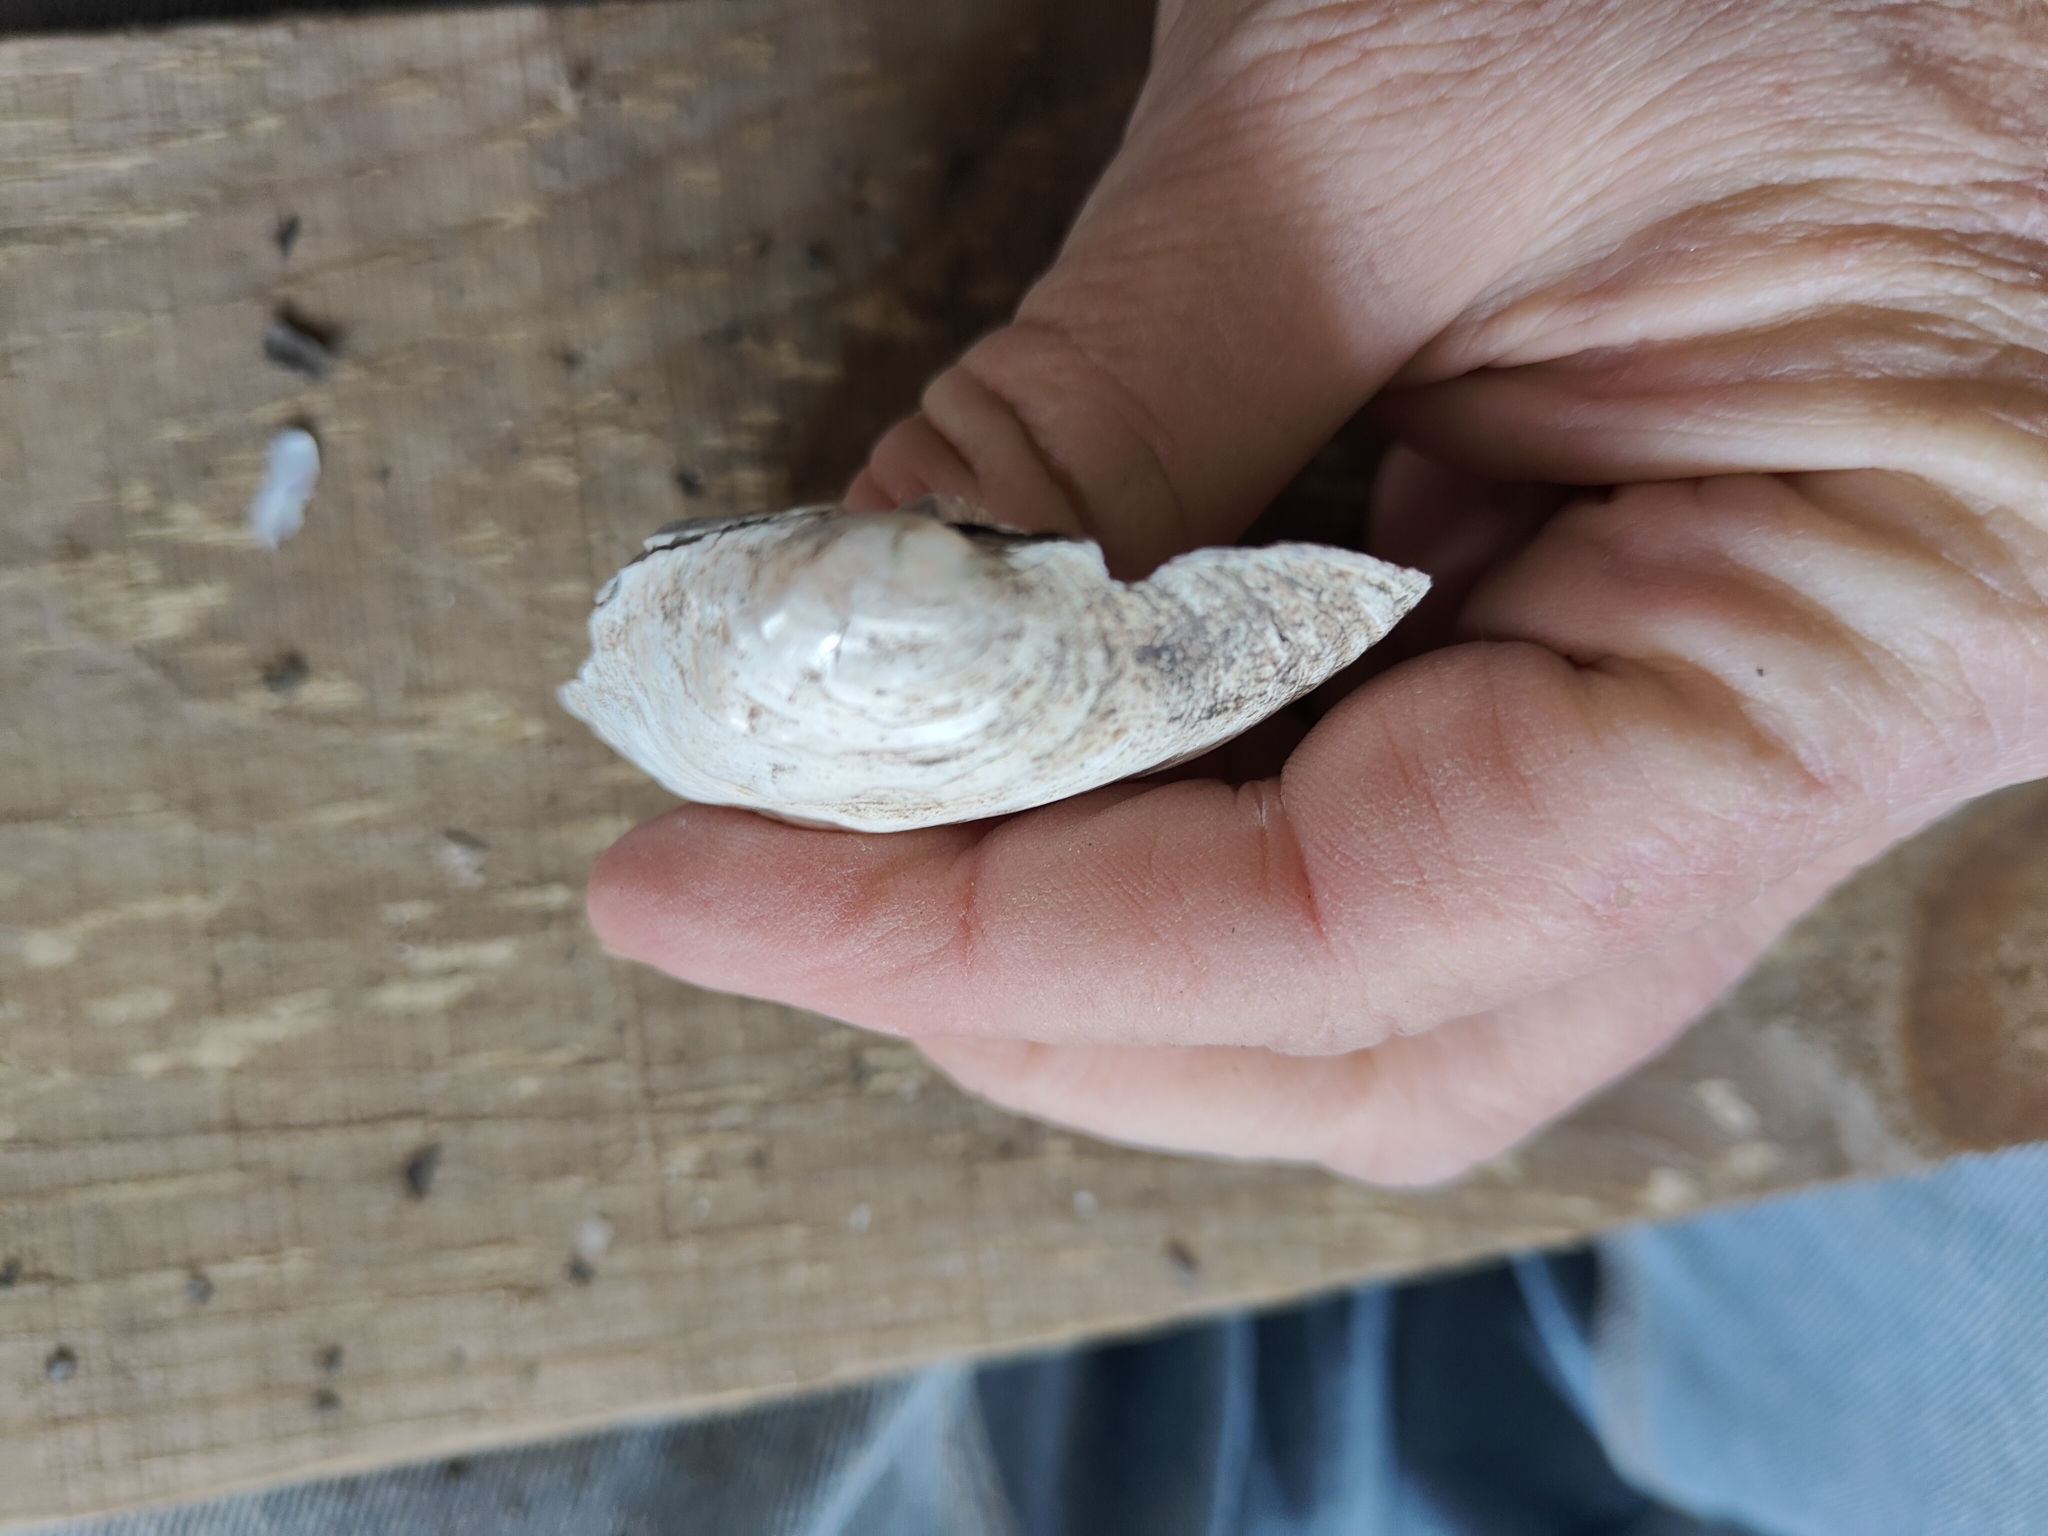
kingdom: Animalia
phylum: Mollusca
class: Bivalvia
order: Unionida
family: Unionidae
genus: Amblema
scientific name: Amblema plicata
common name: Threeridge
